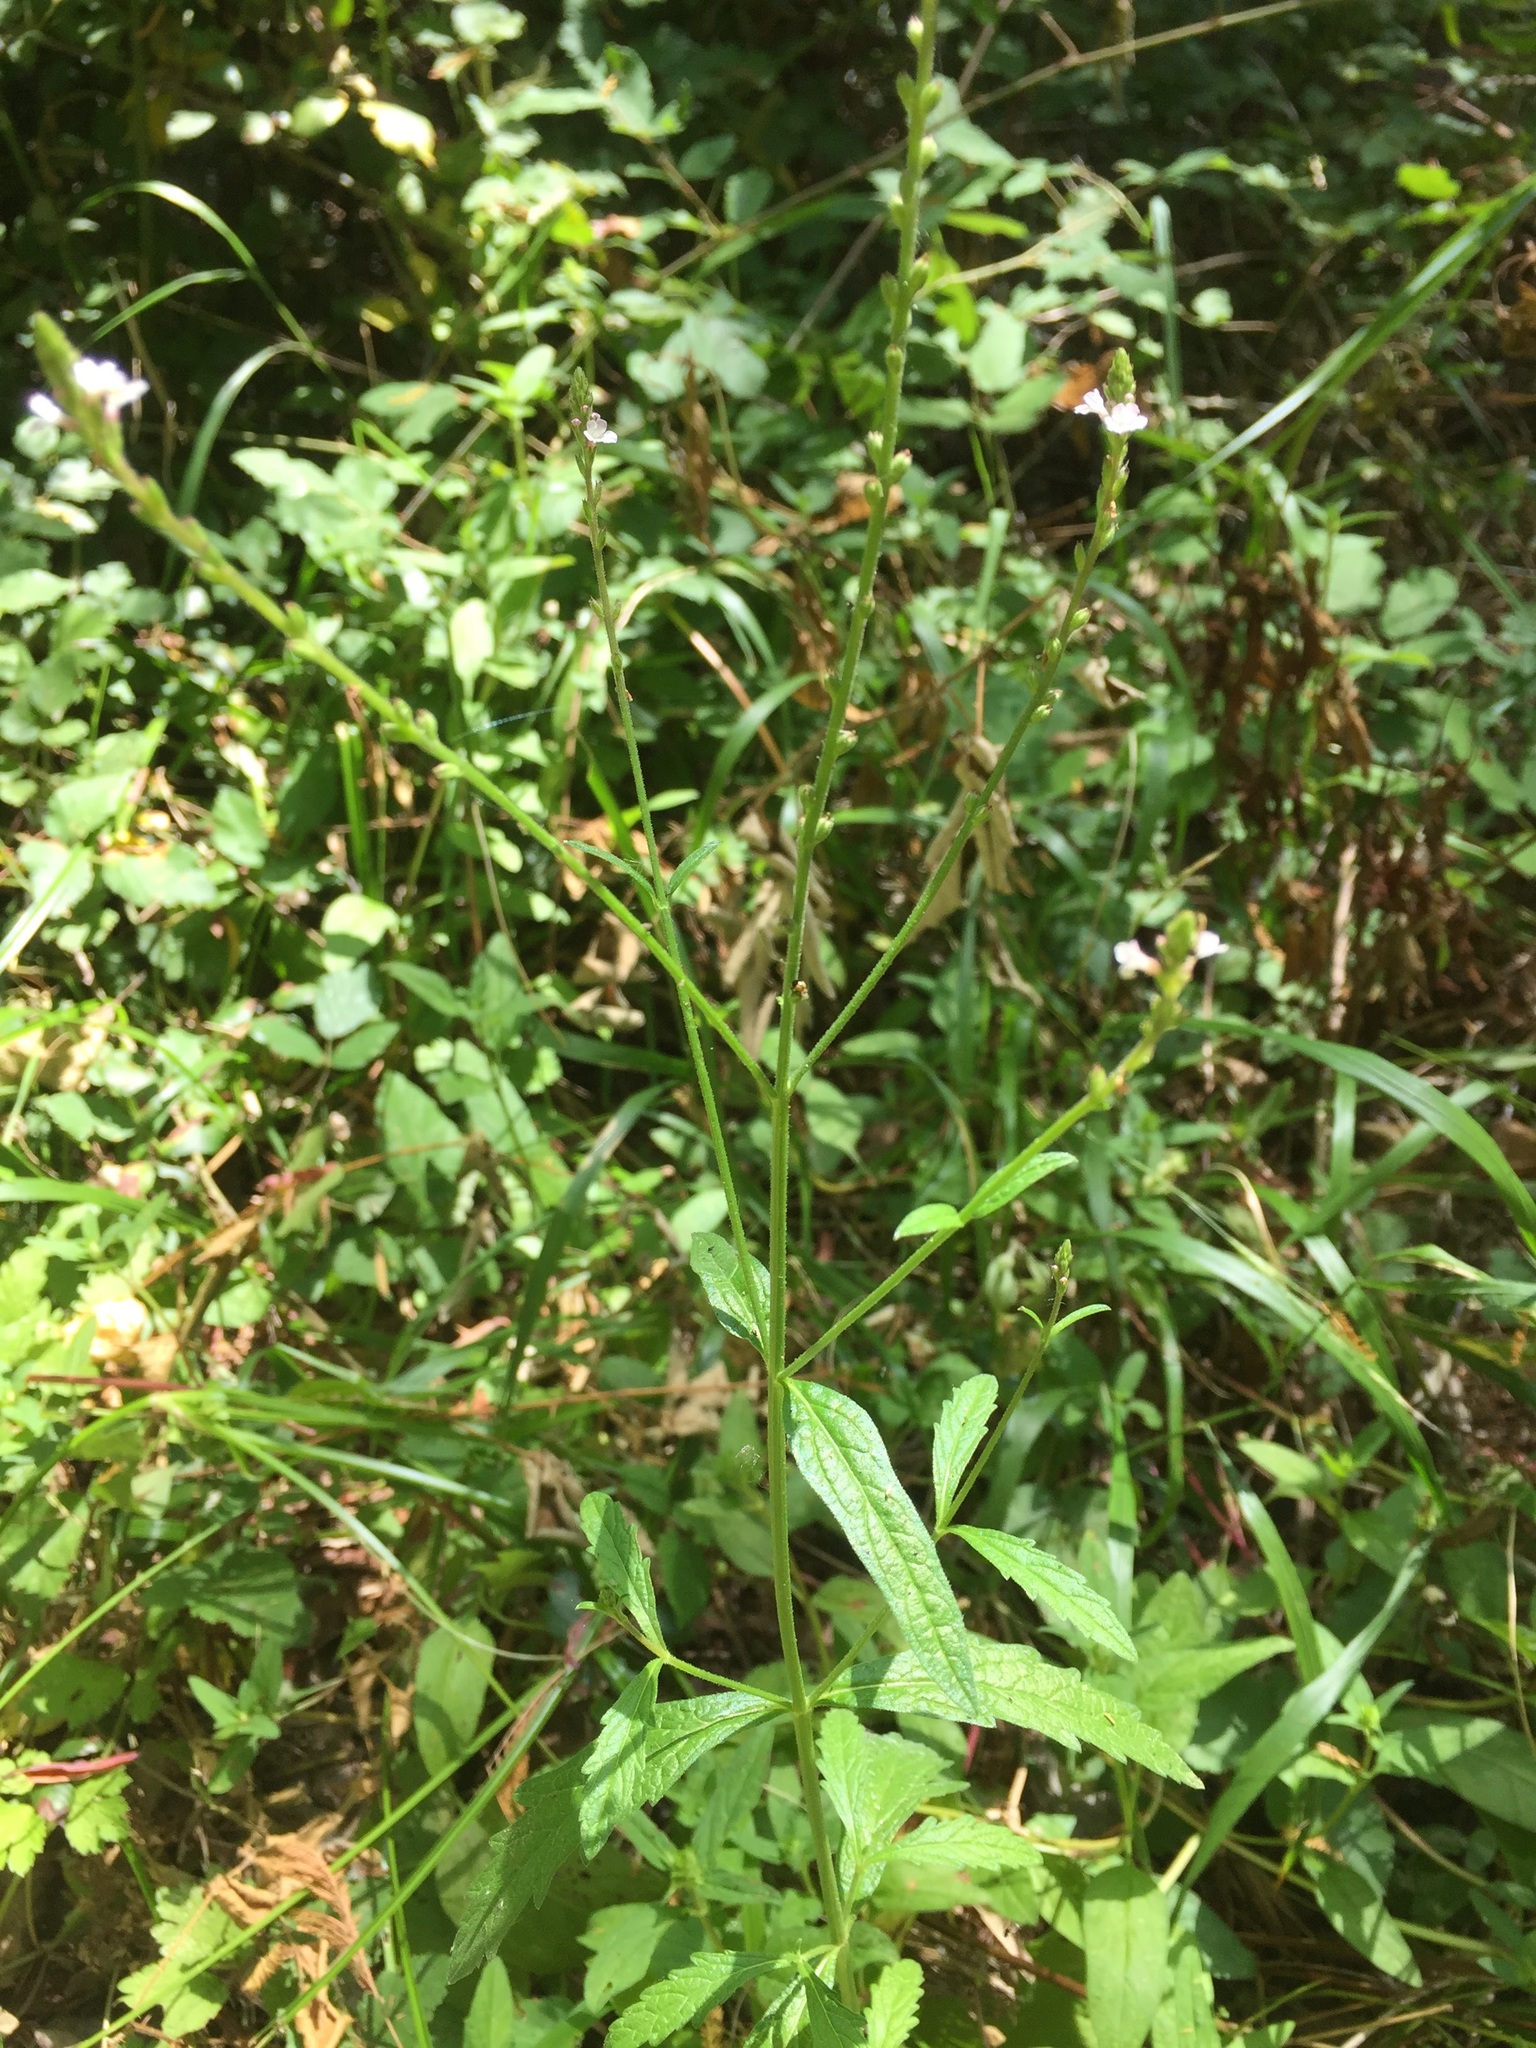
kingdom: Plantae
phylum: Tracheophyta
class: Magnoliopsida
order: Lamiales
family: Verbenaceae
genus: Verbena
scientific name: Verbena officinalis
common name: Vervain
